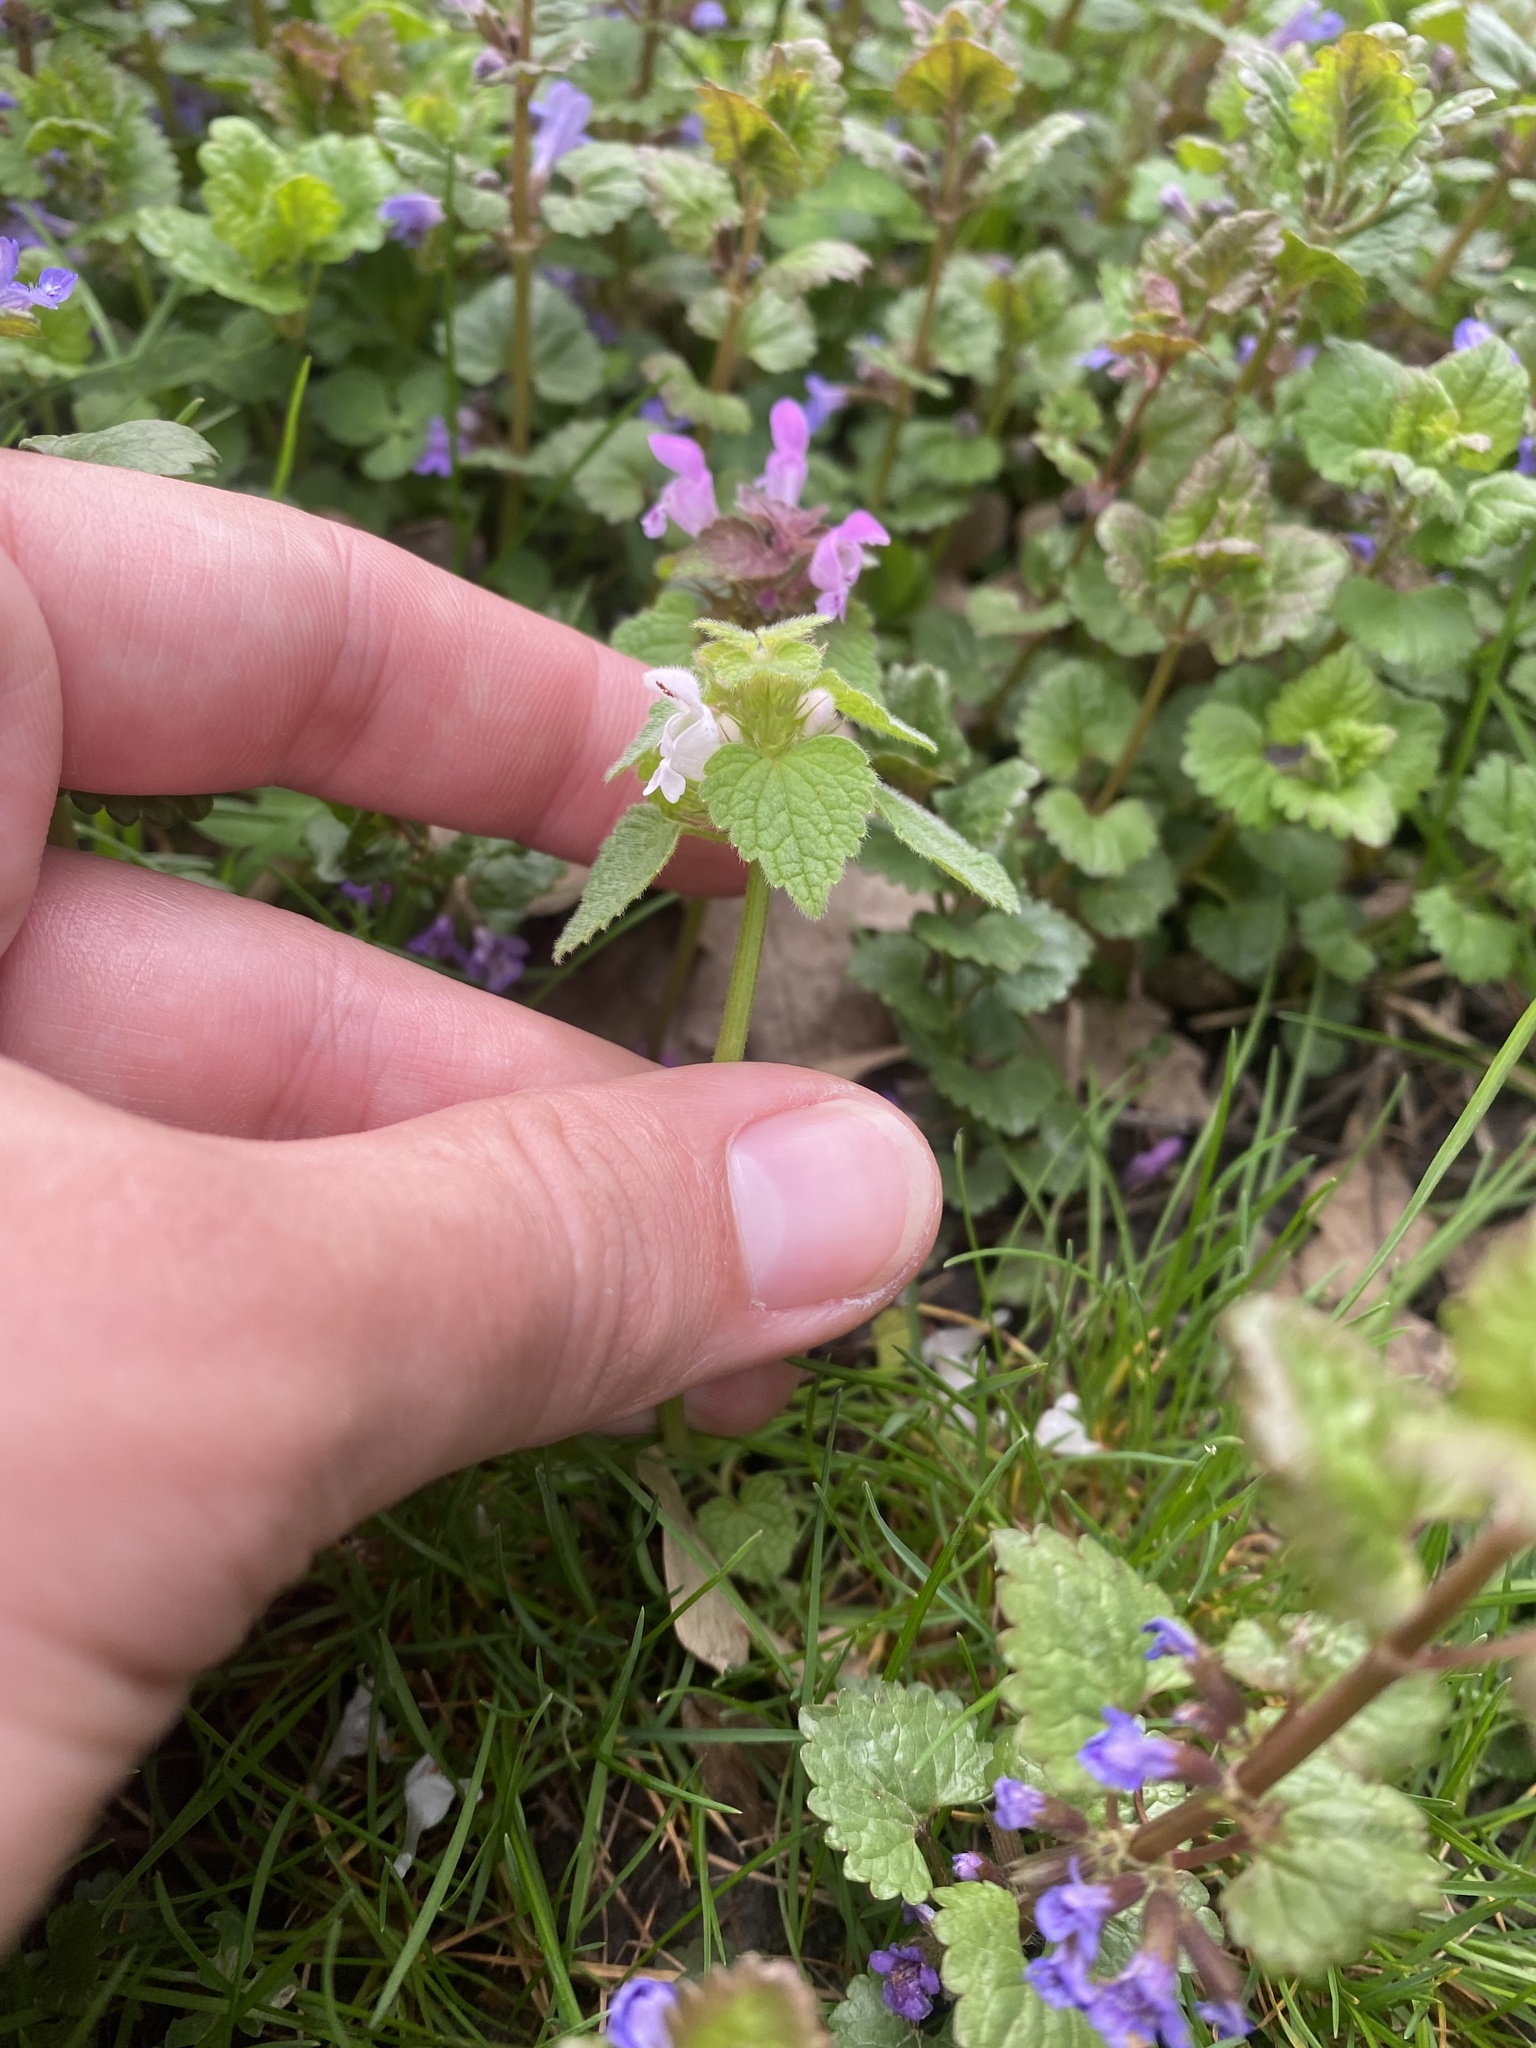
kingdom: Plantae
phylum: Tracheophyta
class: Magnoliopsida
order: Lamiales
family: Lamiaceae
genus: Lamium
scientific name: Lamium purpureum
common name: Red dead-nettle
